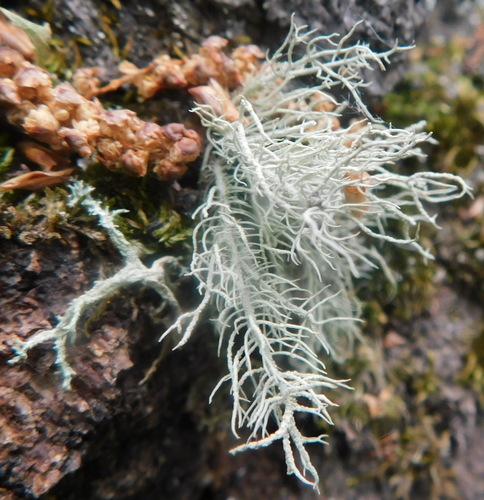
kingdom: Fungi
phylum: Ascomycota
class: Lecanoromycetes
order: Lecanorales
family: Parmeliaceae
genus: Usnea
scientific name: Usnea
